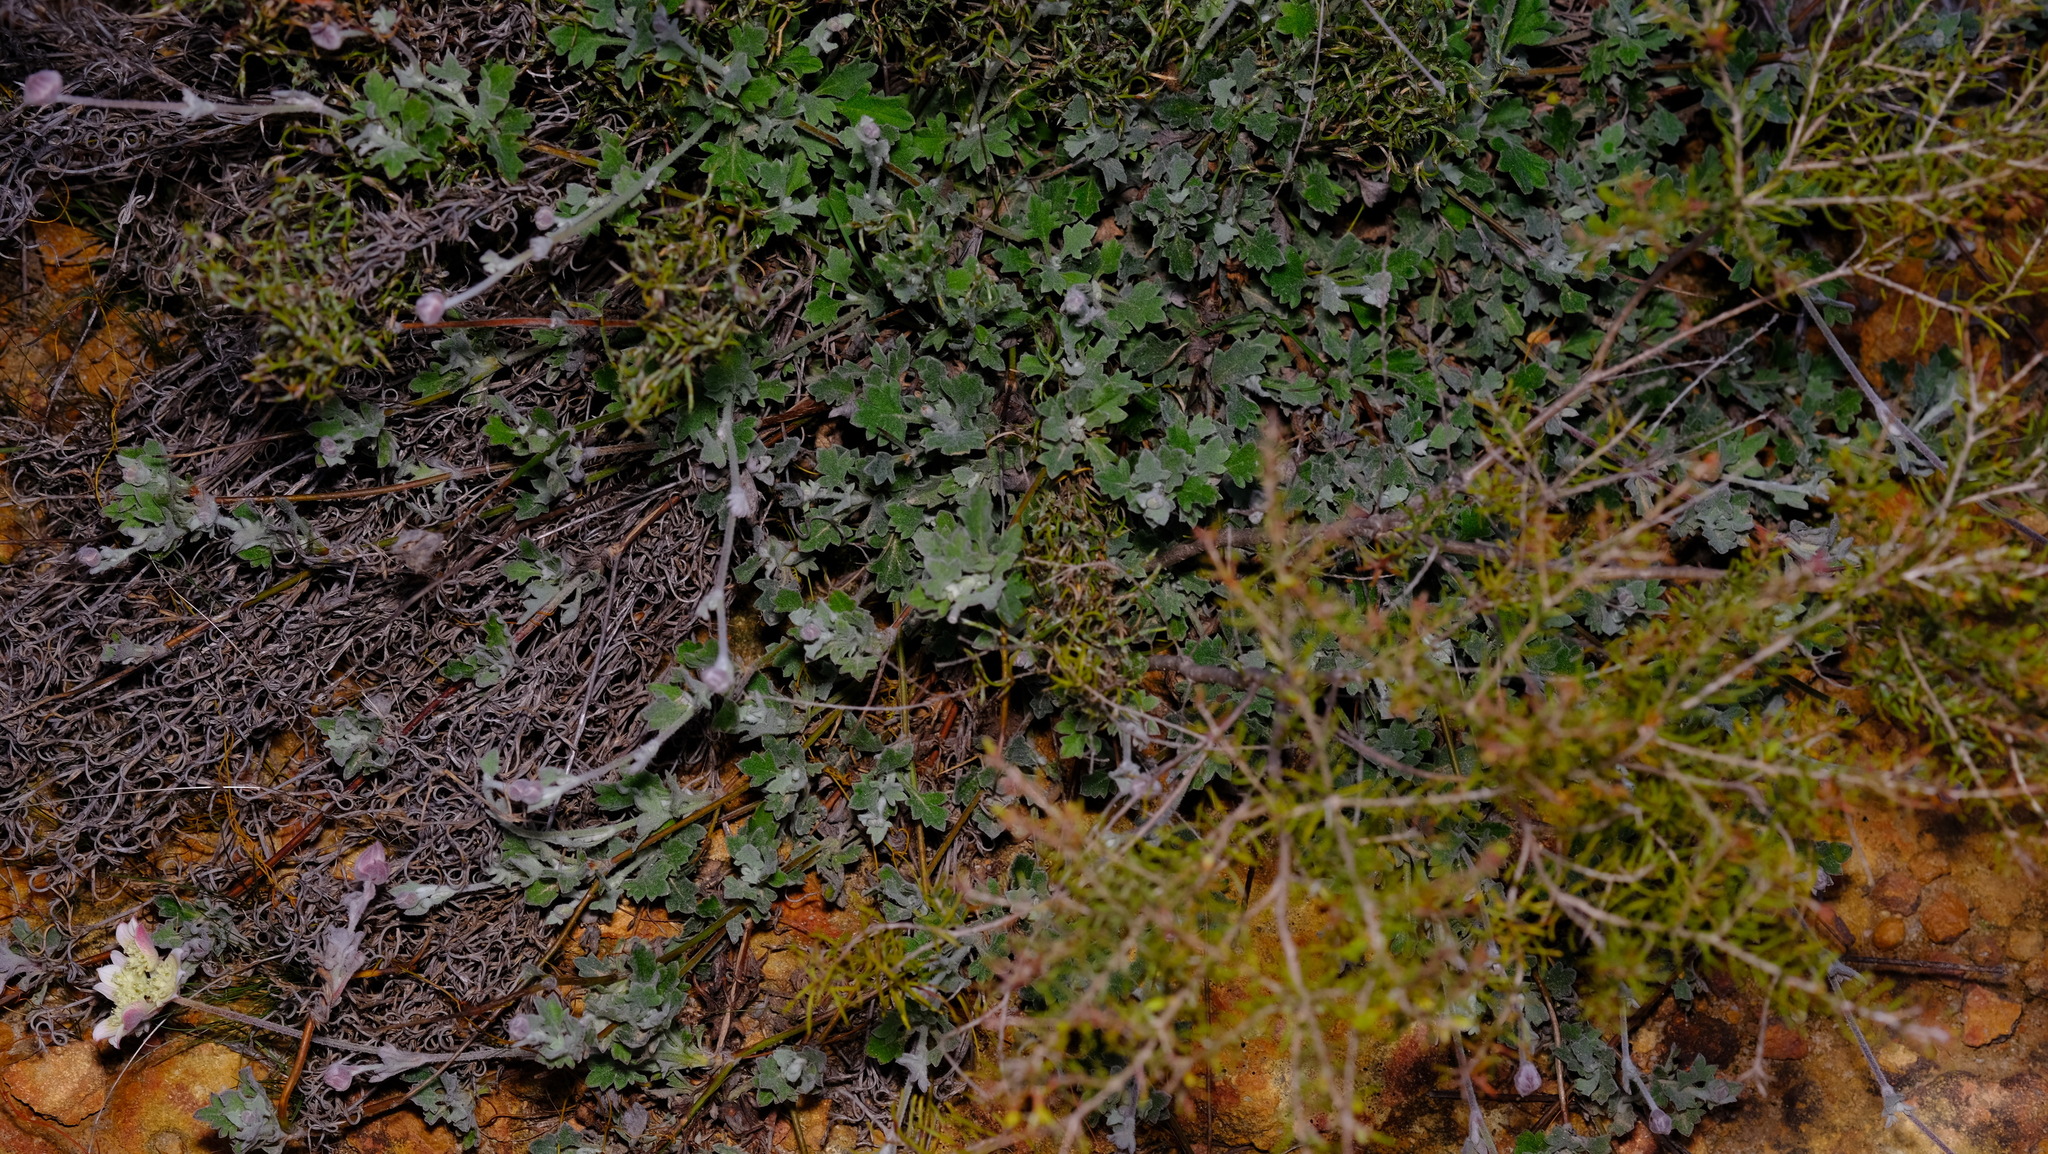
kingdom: Plantae
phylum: Tracheophyta
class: Magnoliopsida
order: Apiales
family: Apiaceae
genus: Xanthosia
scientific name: Xanthosia tomentosa
